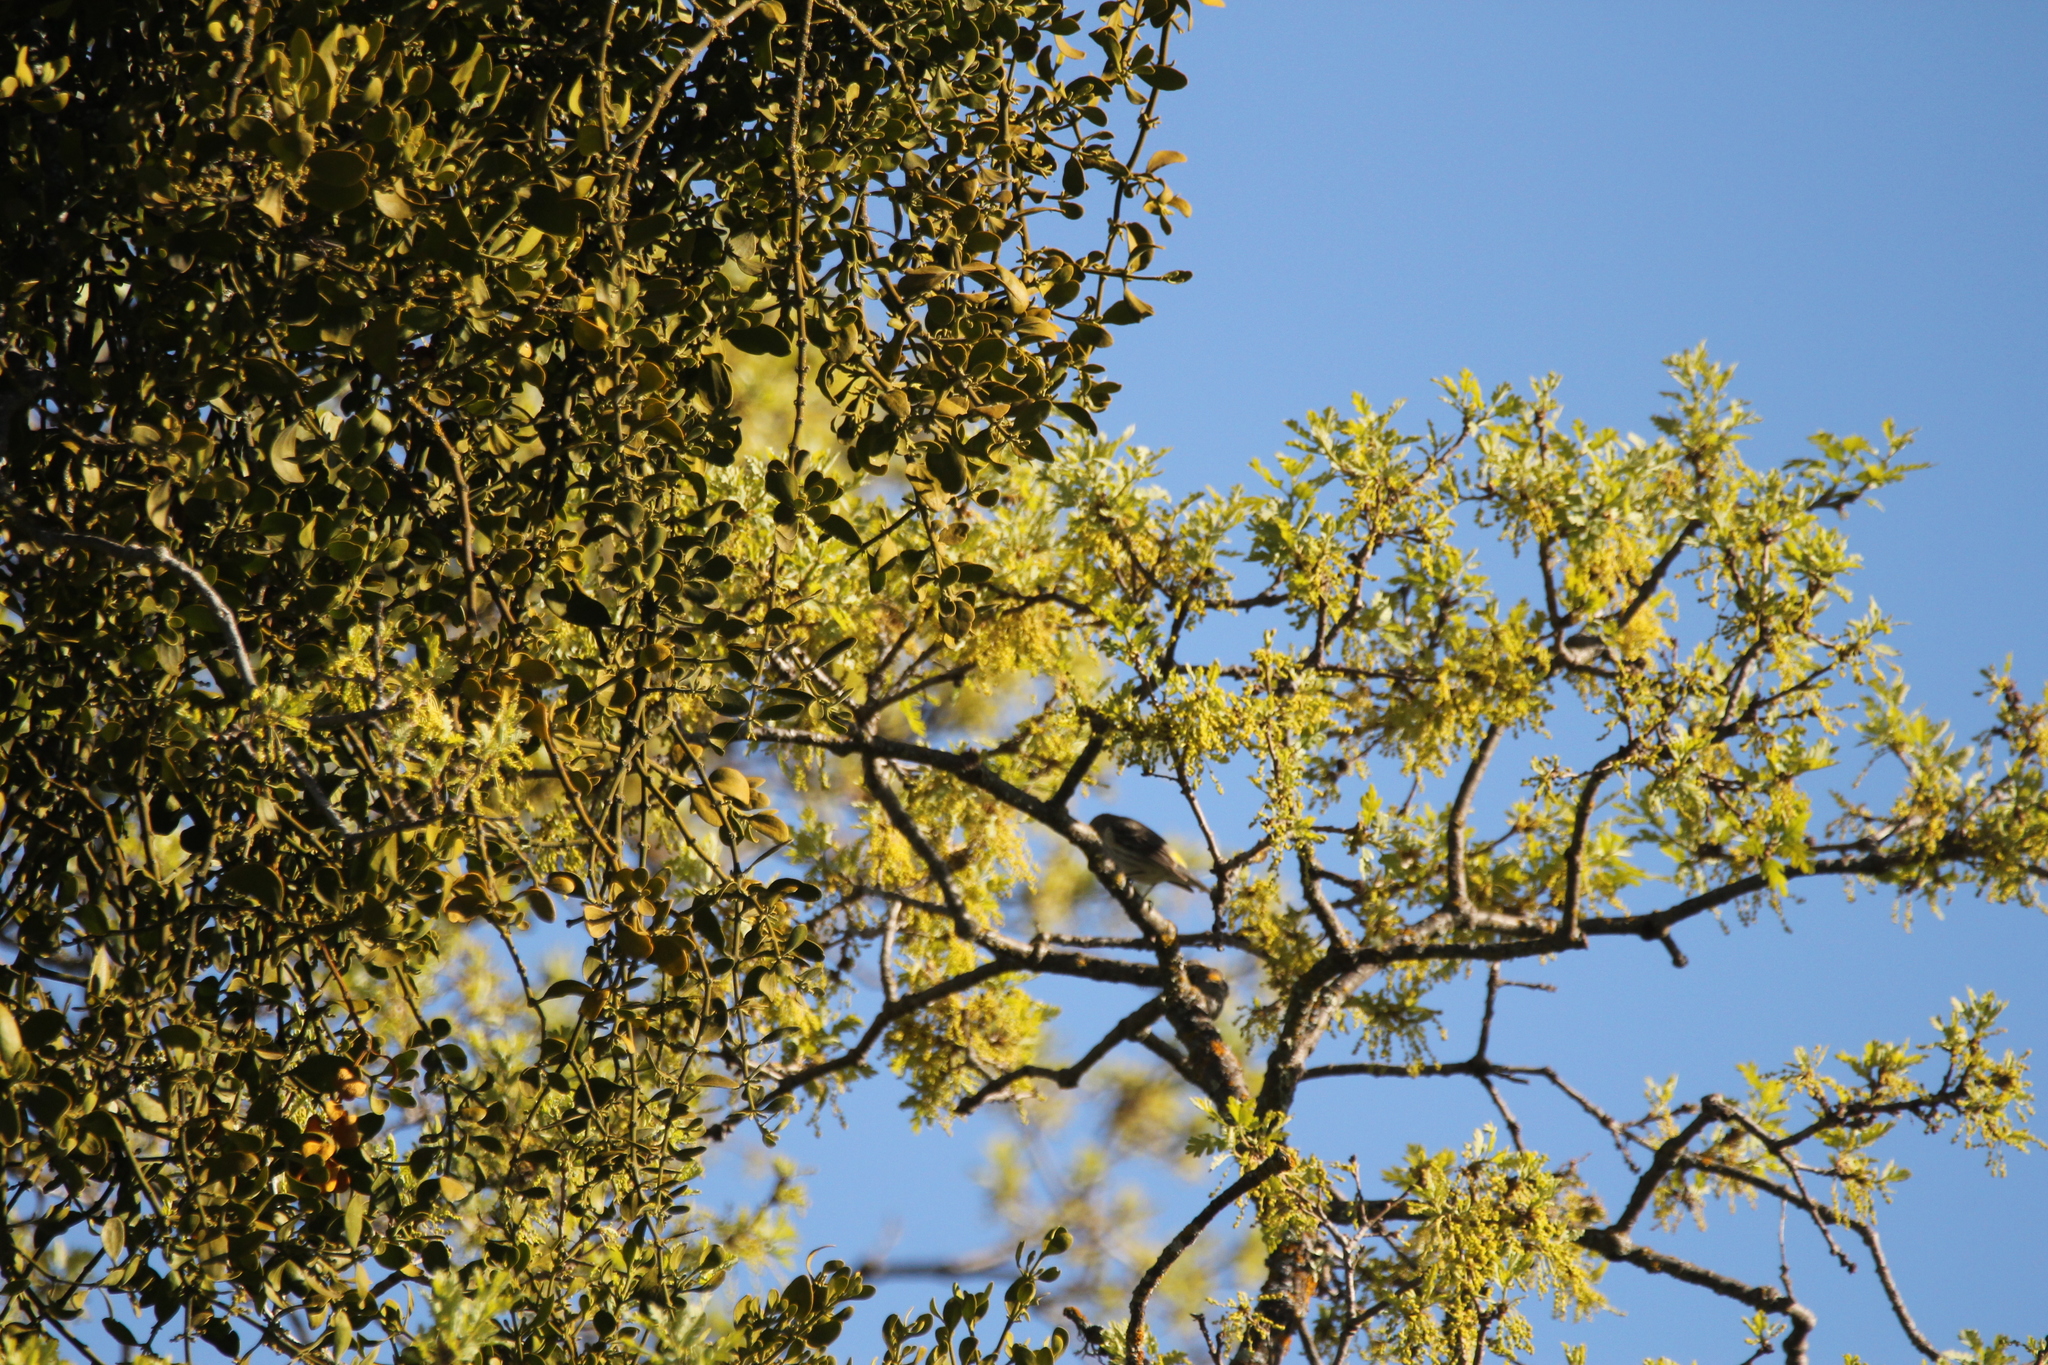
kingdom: Animalia
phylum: Chordata
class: Aves
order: Passeriformes
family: Parulidae
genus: Setophaga
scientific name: Setophaga coronata
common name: Myrtle warbler
